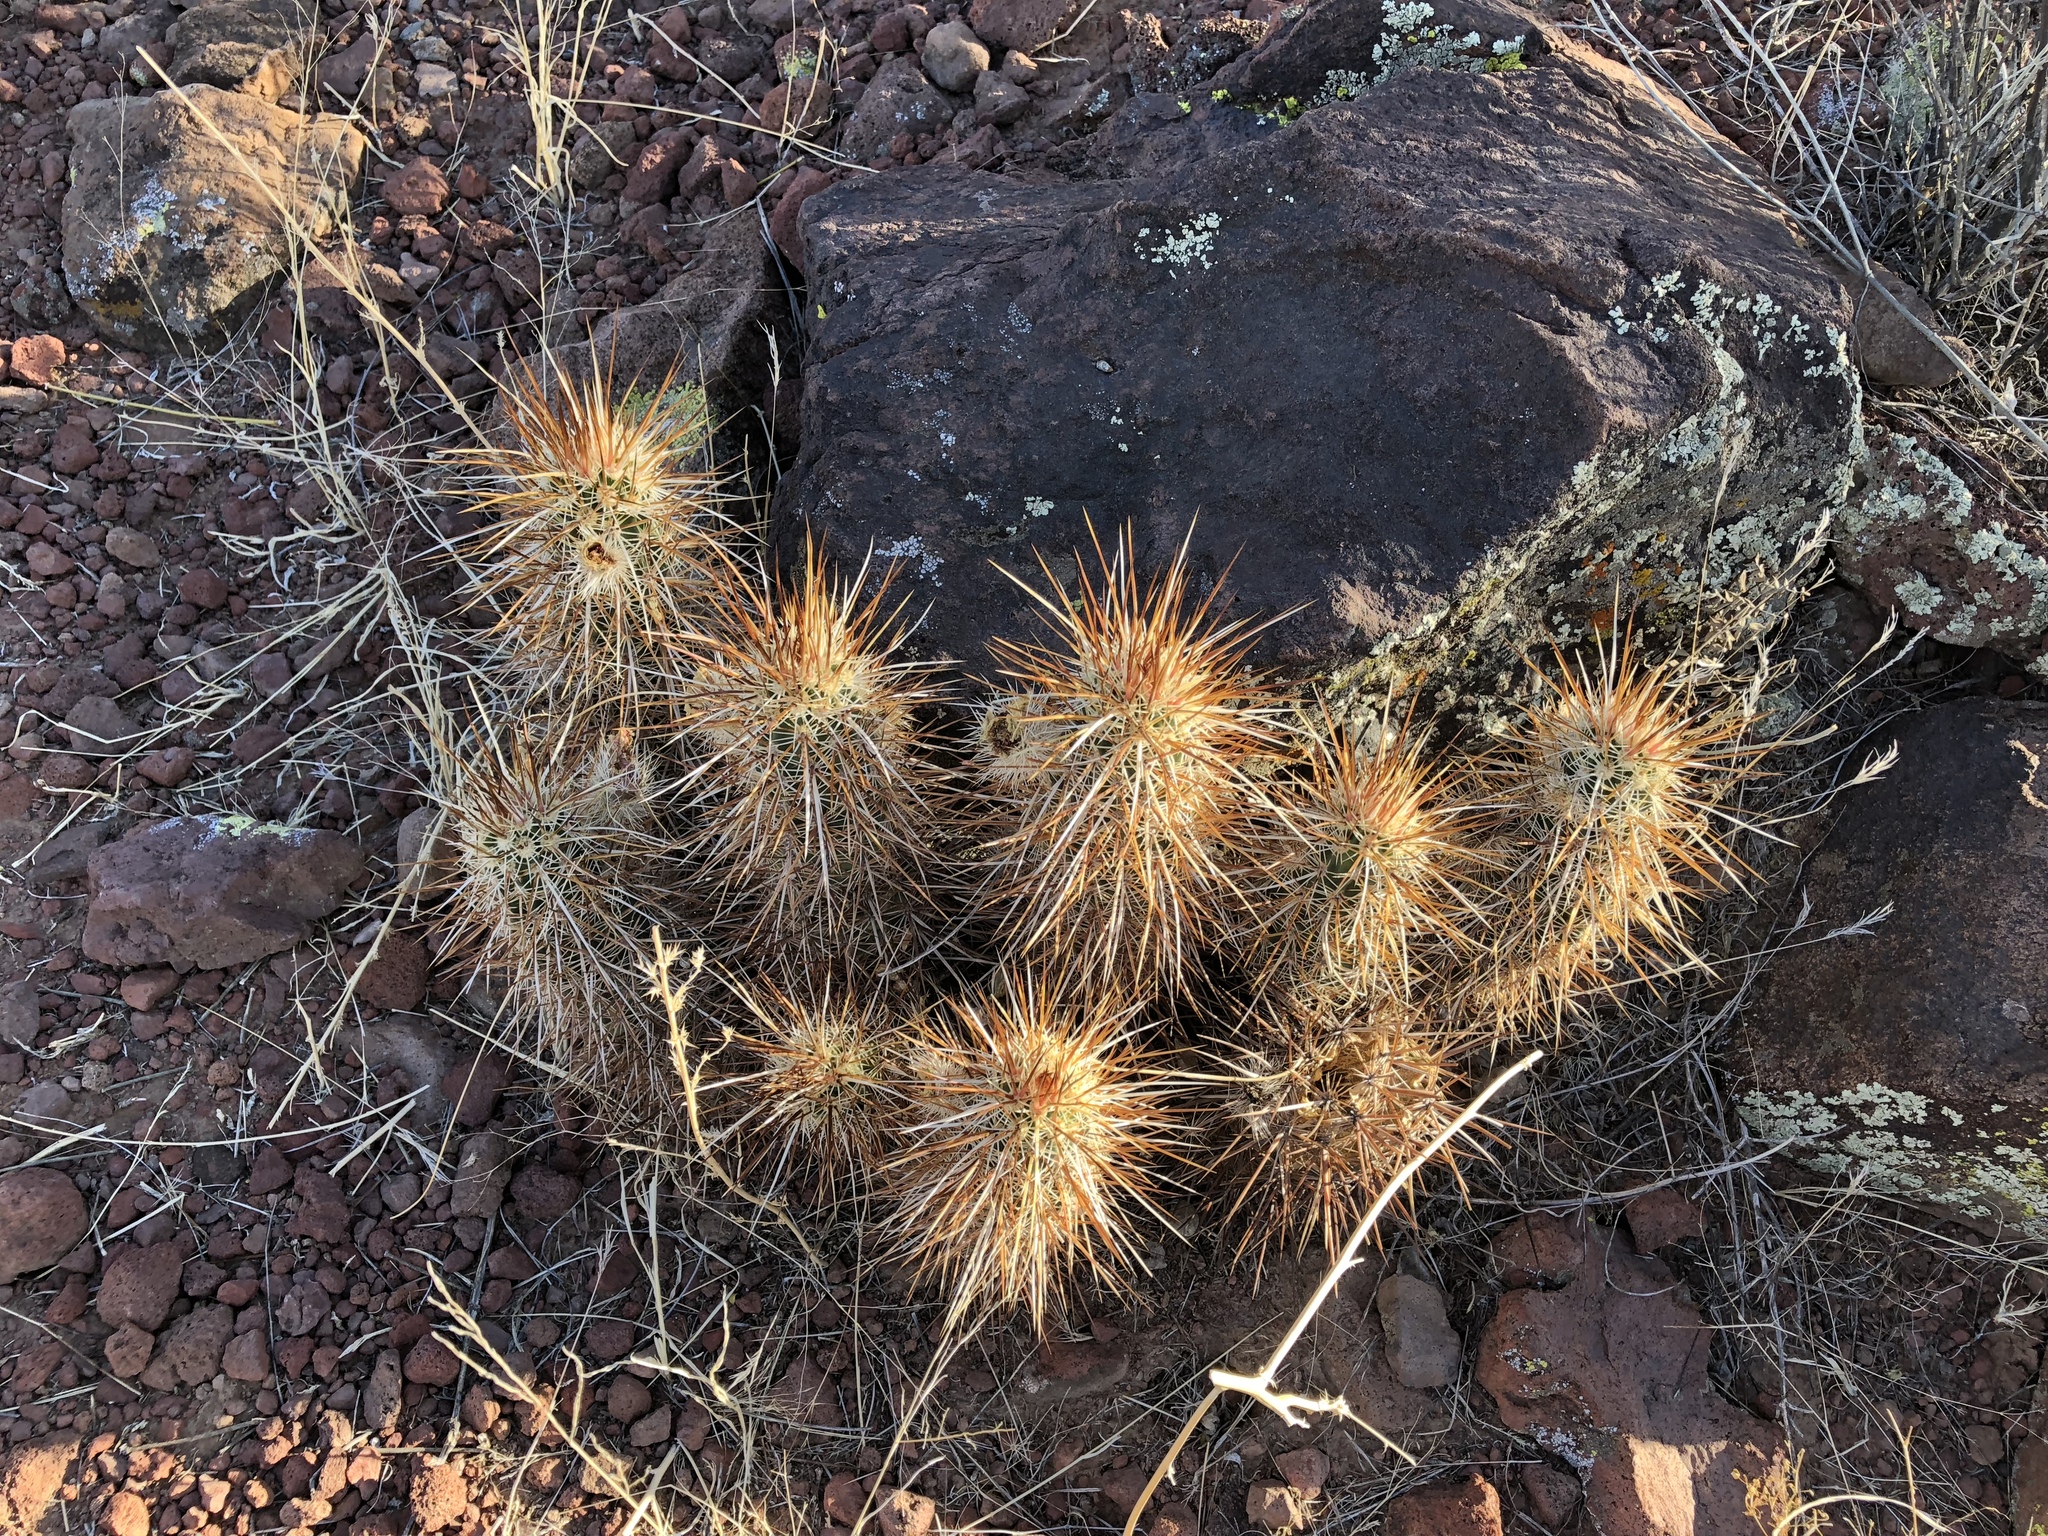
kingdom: Plantae
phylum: Tracheophyta
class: Magnoliopsida
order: Caryophyllales
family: Cactaceae
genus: Echinocereus
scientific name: Echinocereus engelmannii
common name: Engelmann's hedgehog cactus
